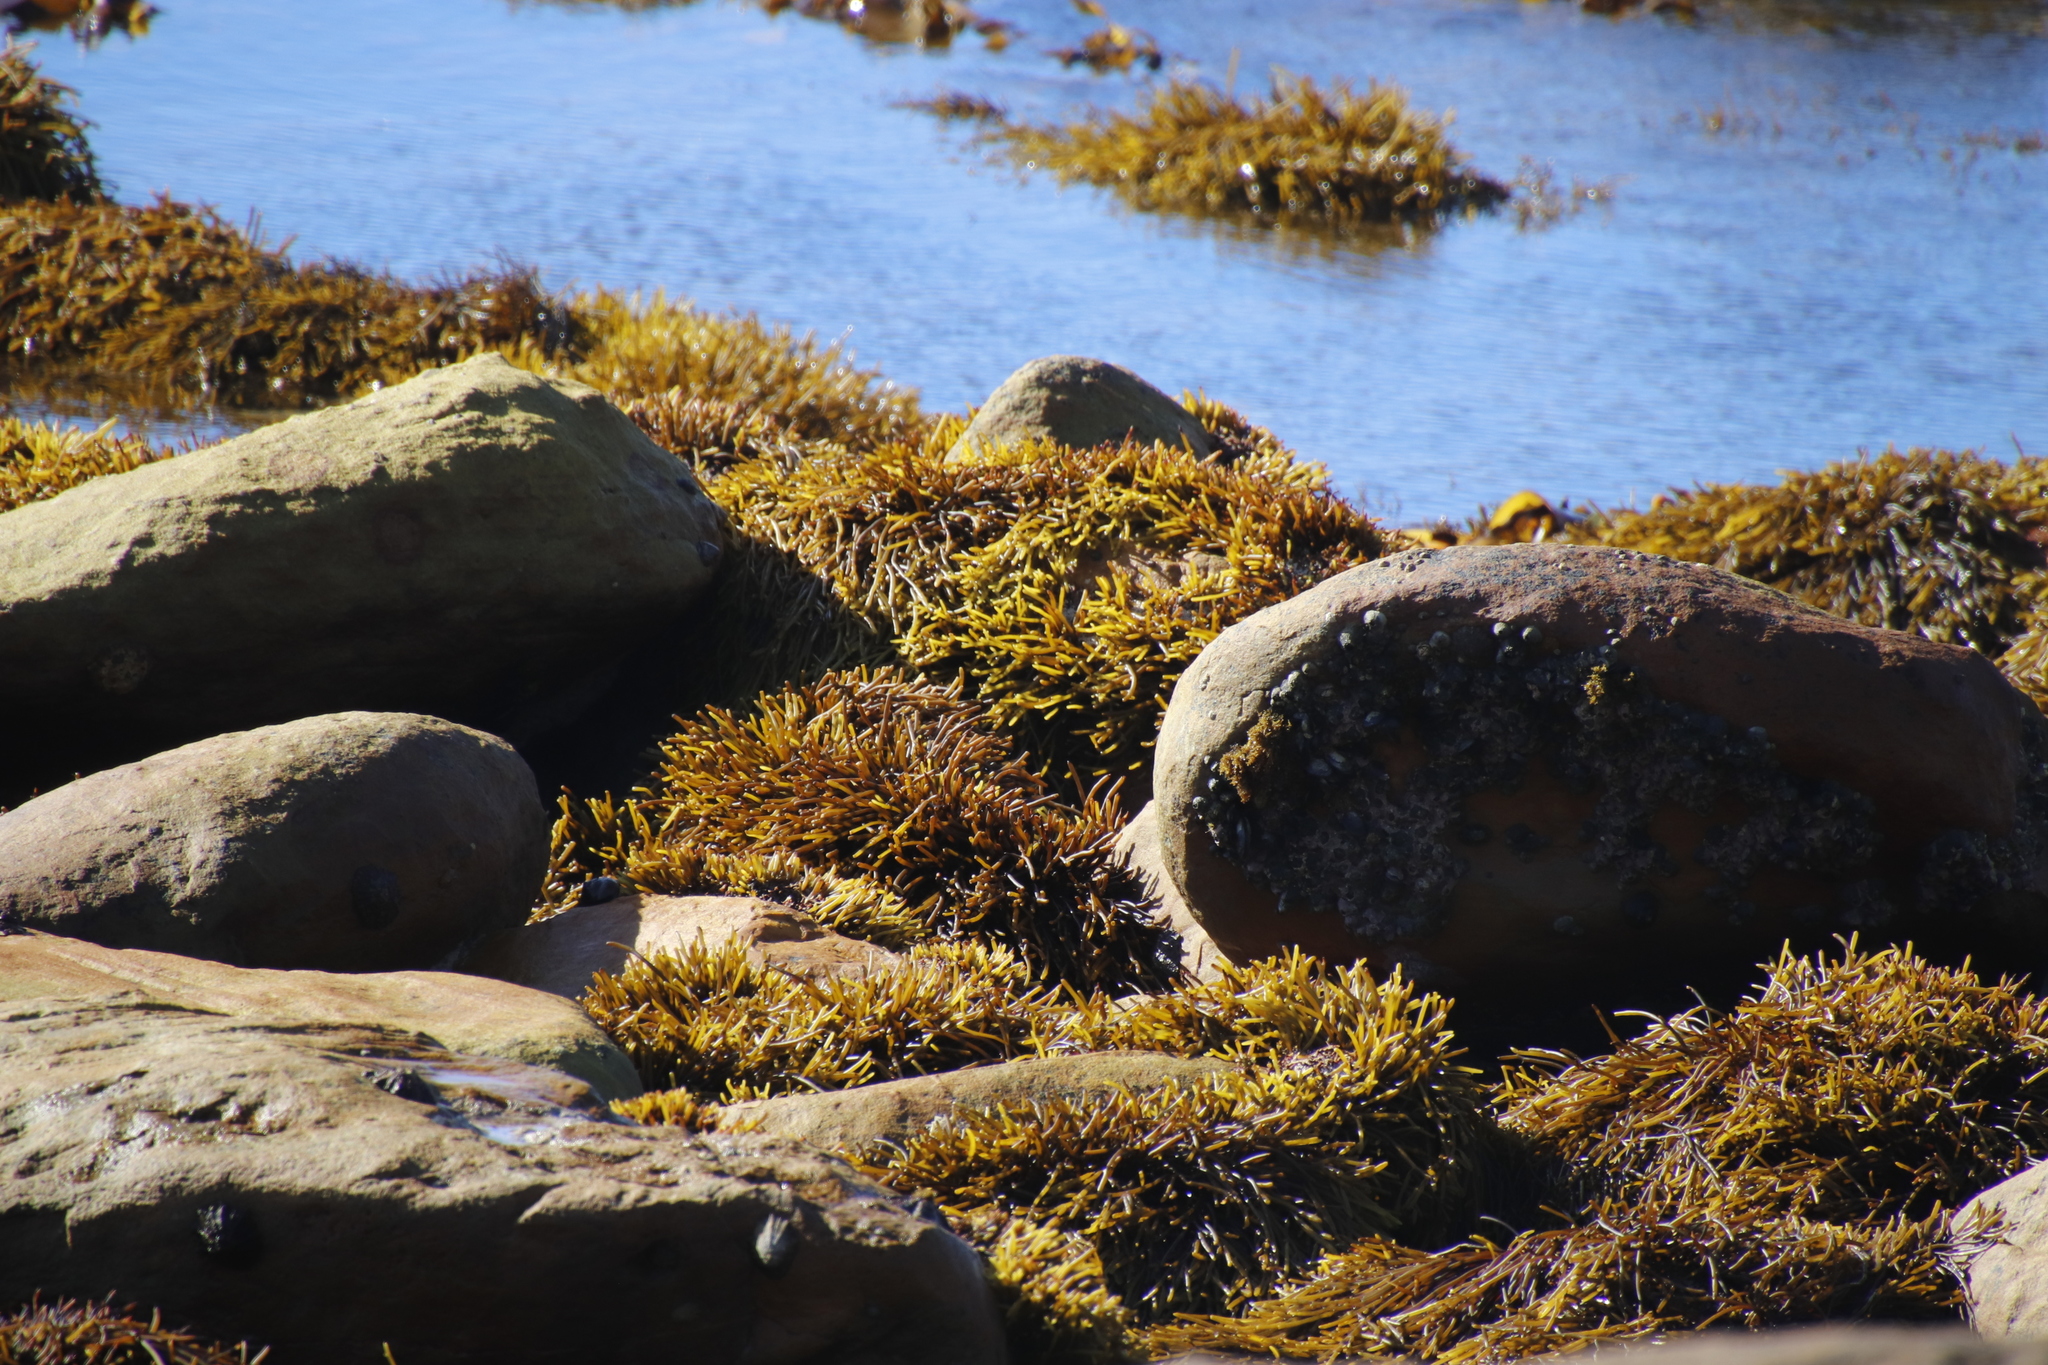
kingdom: Chromista
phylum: Ochrophyta
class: Phaeophyceae
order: Fucales
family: Sargassaceae
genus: Brassicophycus
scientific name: Brassicophycus
